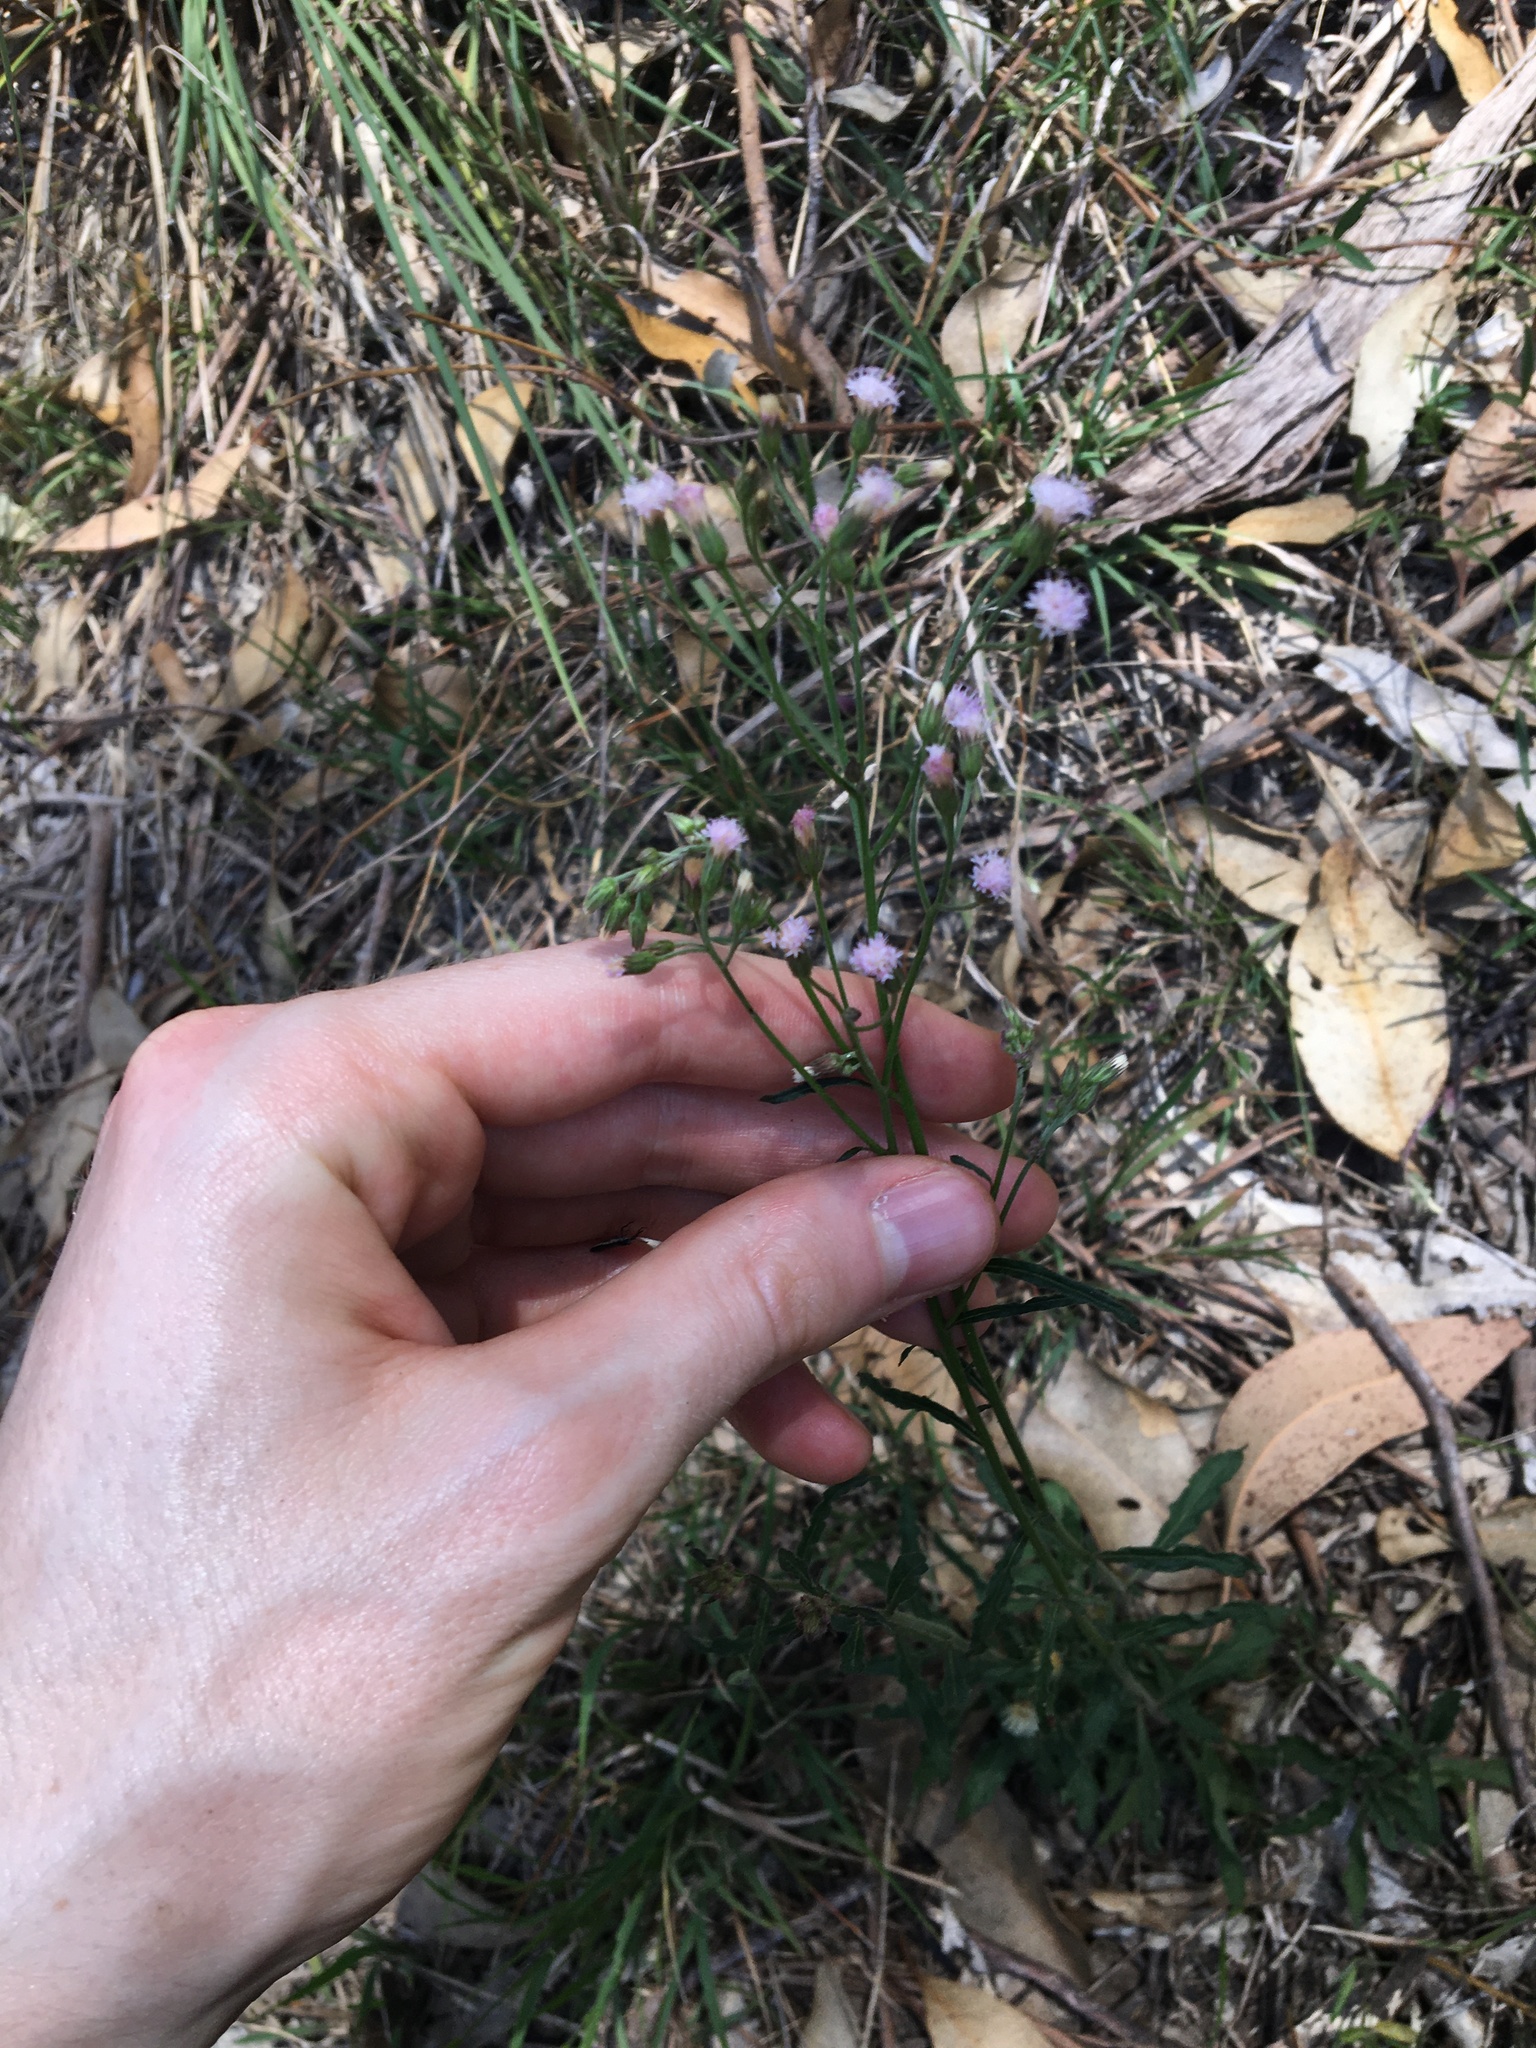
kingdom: Plantae
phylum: Tracheophyta
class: Magnoliopsida
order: Asterales
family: Asteraceae
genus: Cyanthillium
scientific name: Cyanthillium cinereum
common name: Little ironweed
